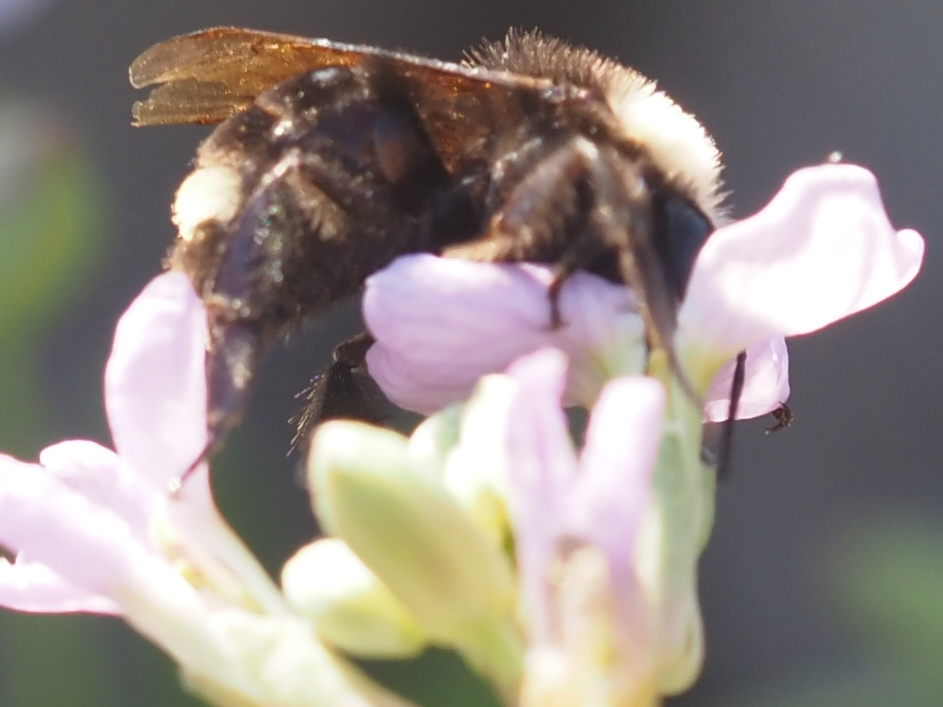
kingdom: Animalia
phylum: Arthropoda
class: Insecta
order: Hymenoptera
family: Apidae
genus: Bombus
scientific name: Bombus vosnesenskii
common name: Vosnesensky bumble bee
